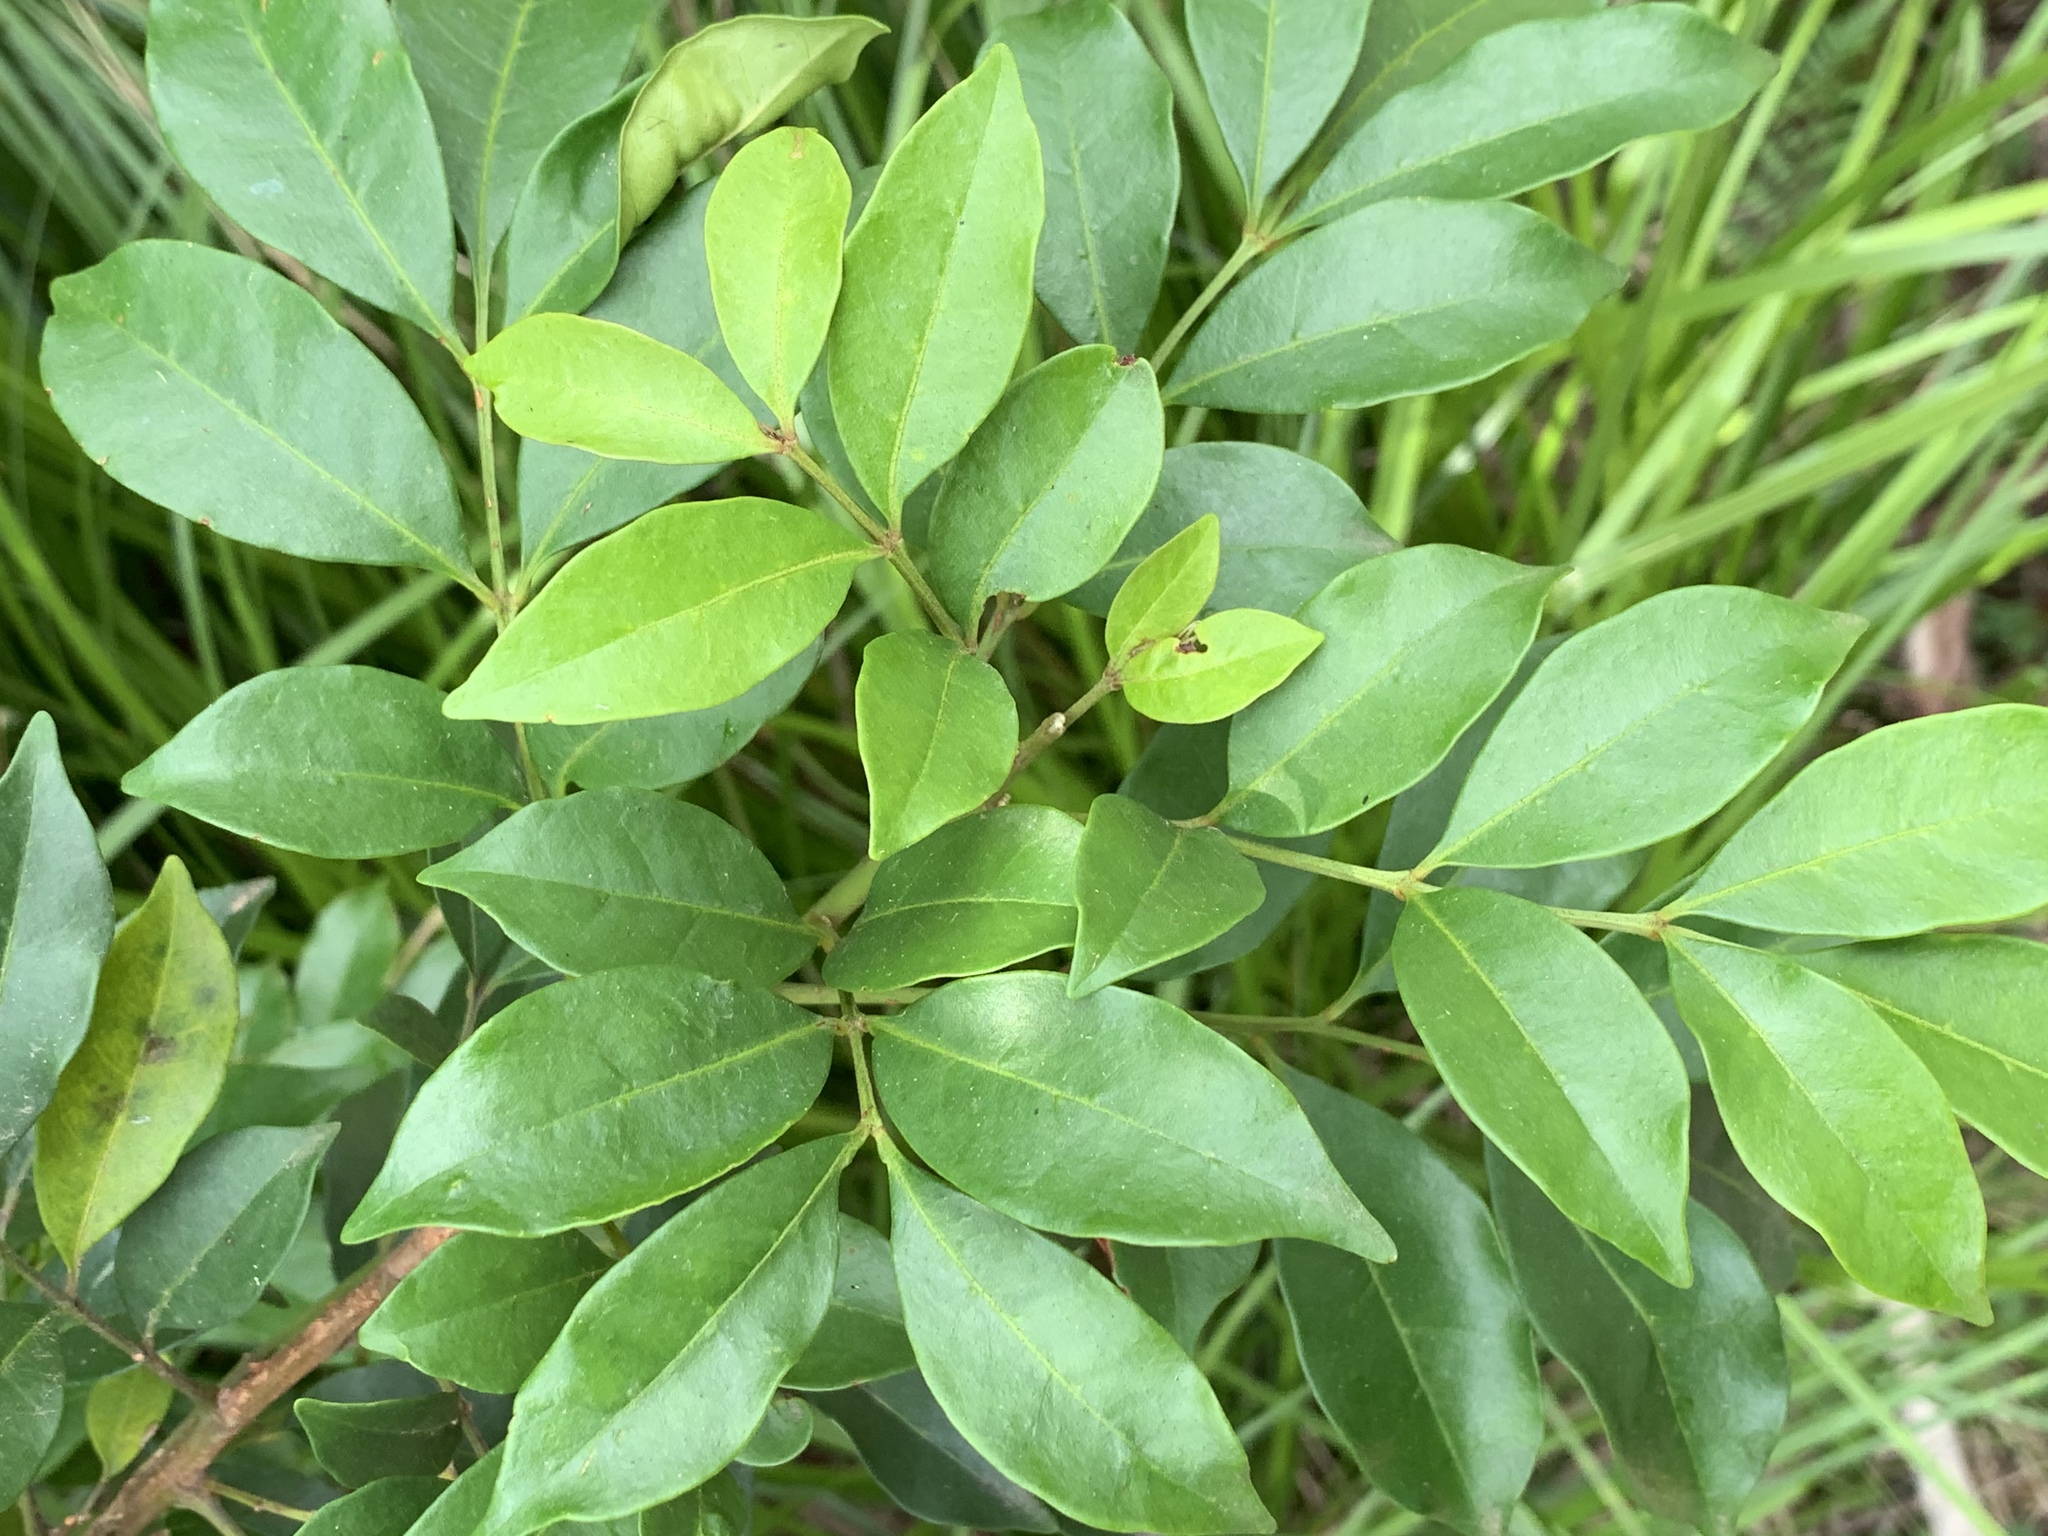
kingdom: Plantae
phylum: Tracheophyta
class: Magnoliopsida
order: Sapindales
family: Meliaceae
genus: Synoum
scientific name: Synoum glandulosum
